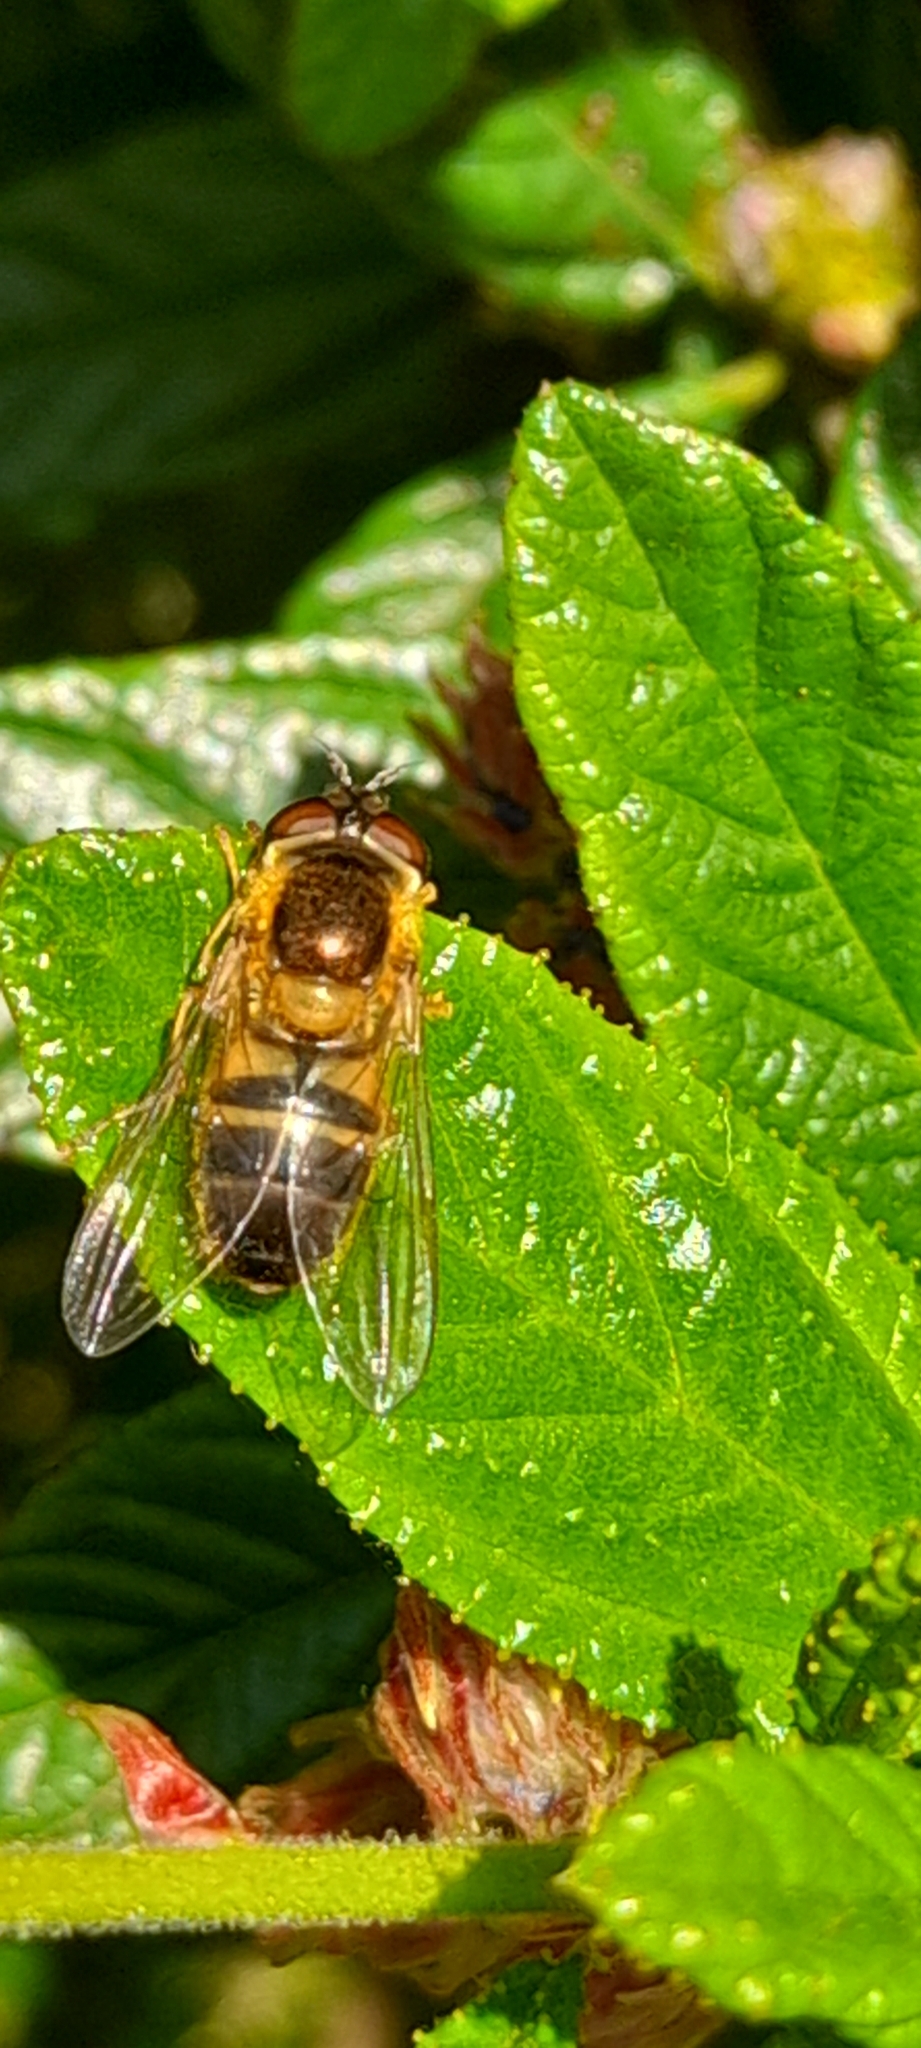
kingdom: Animalia
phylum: Arthropoda
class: Insecta
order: Diptera
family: Syrphidae
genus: Epistrophe
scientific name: Epistrophe eligans
